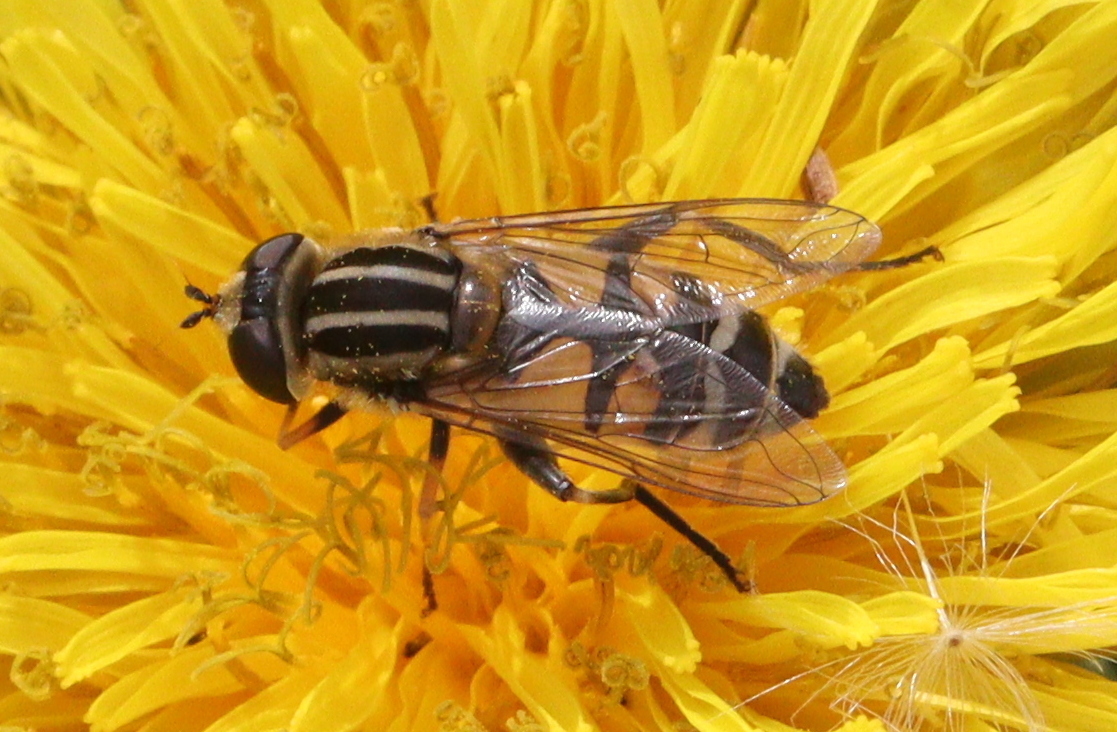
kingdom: Animalia
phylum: Arthropoda
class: Insecta
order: Diptera
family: Syrphidae
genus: Helophilus
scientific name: Helophilus trivittatus
